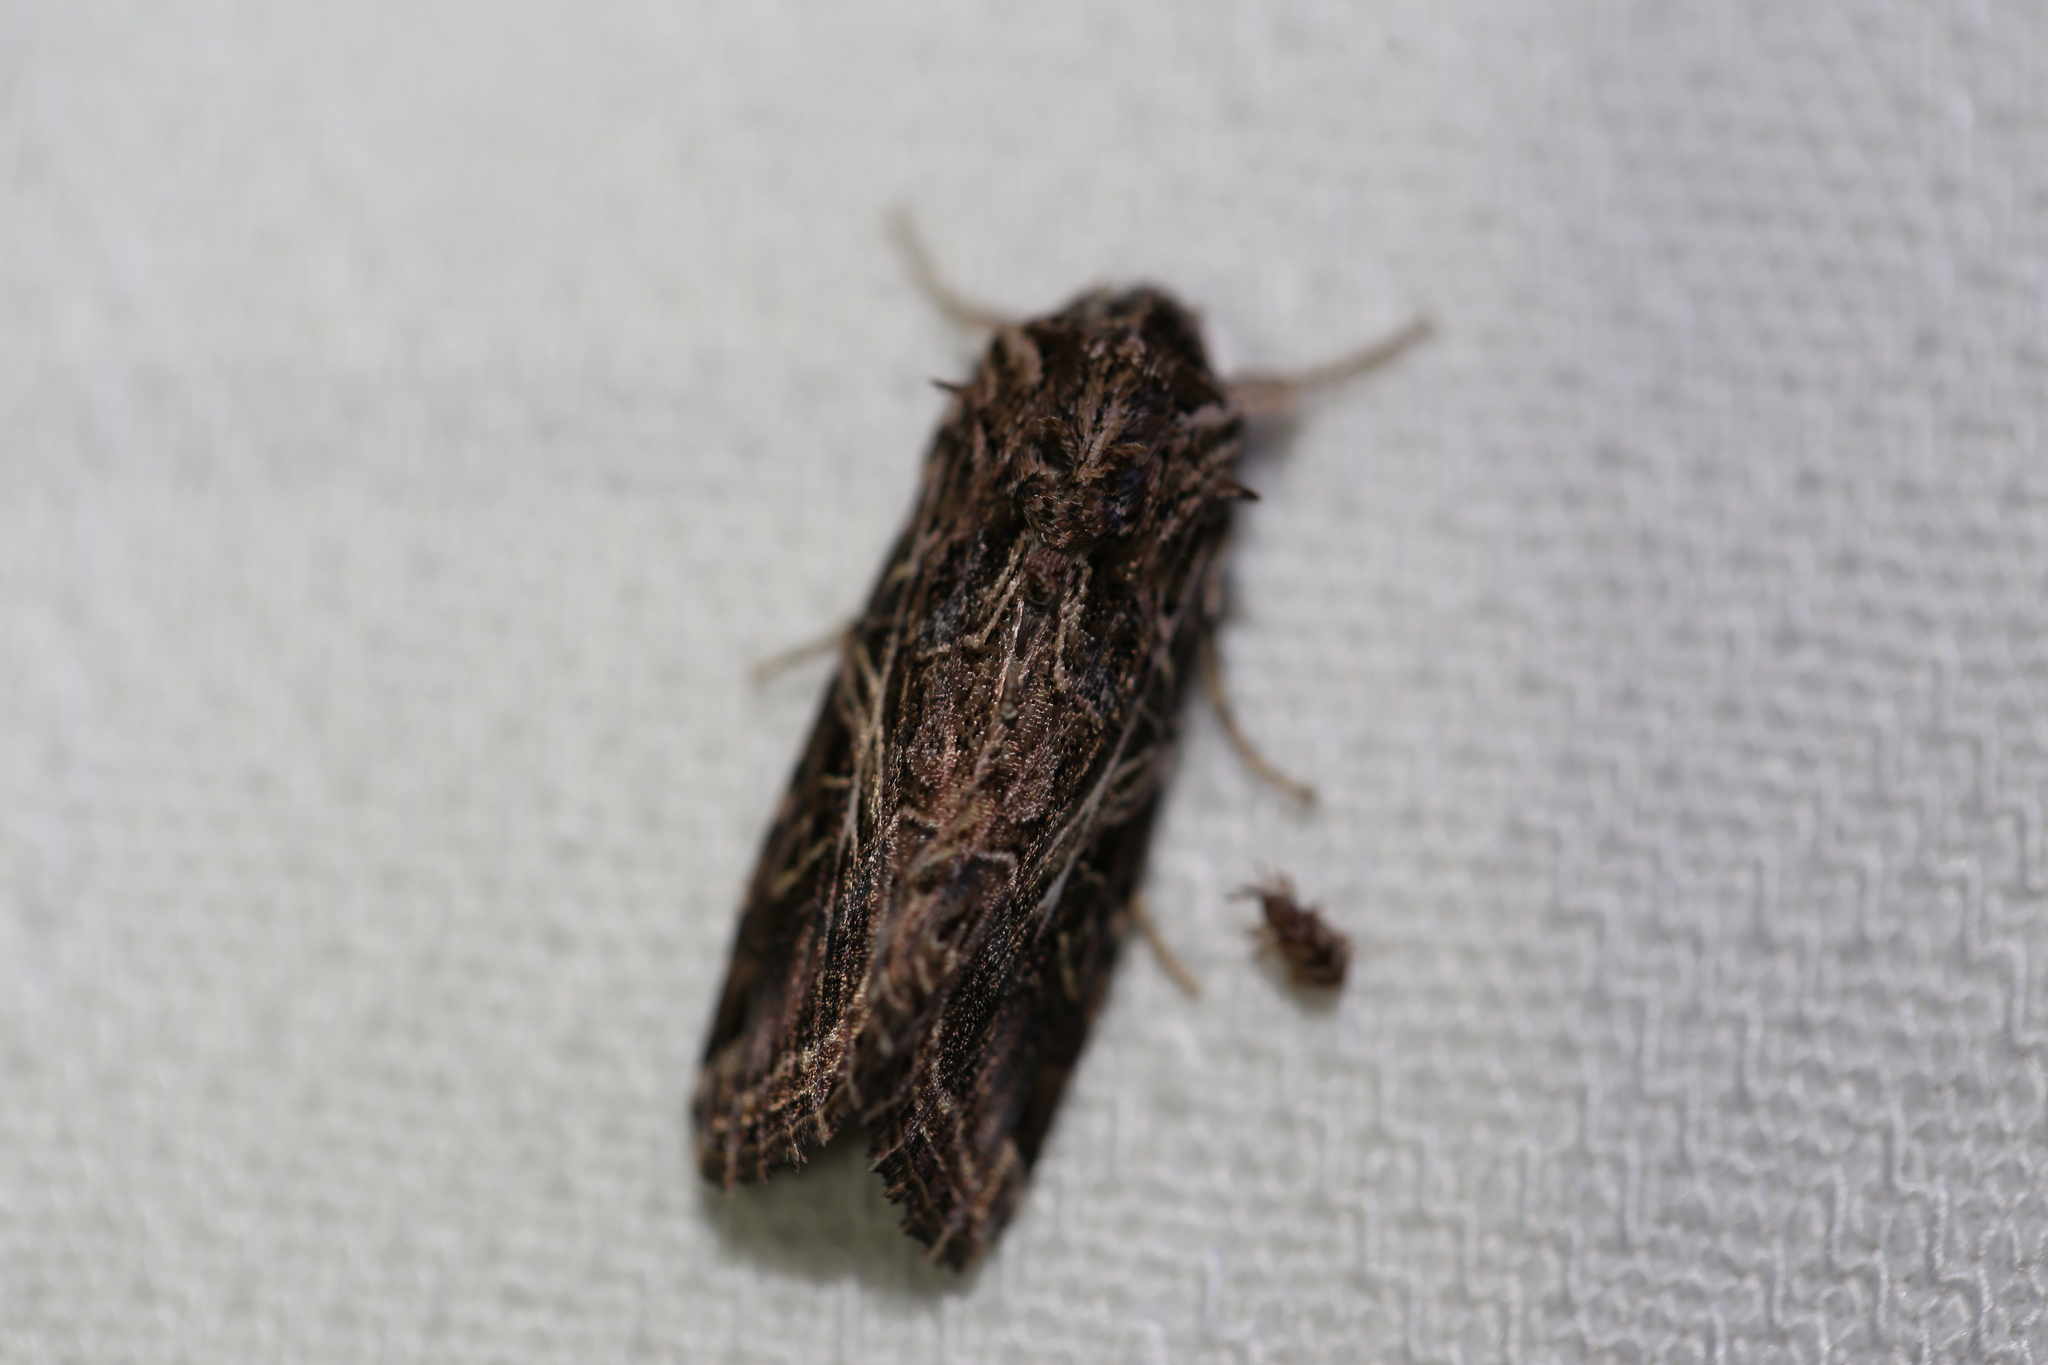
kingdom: Animalia
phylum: Arthropoda
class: Insecta
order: Lepidoptera
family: Noctuidae
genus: Spodoptera
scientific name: Spodoptera litura
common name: Asian cotton leafworm
